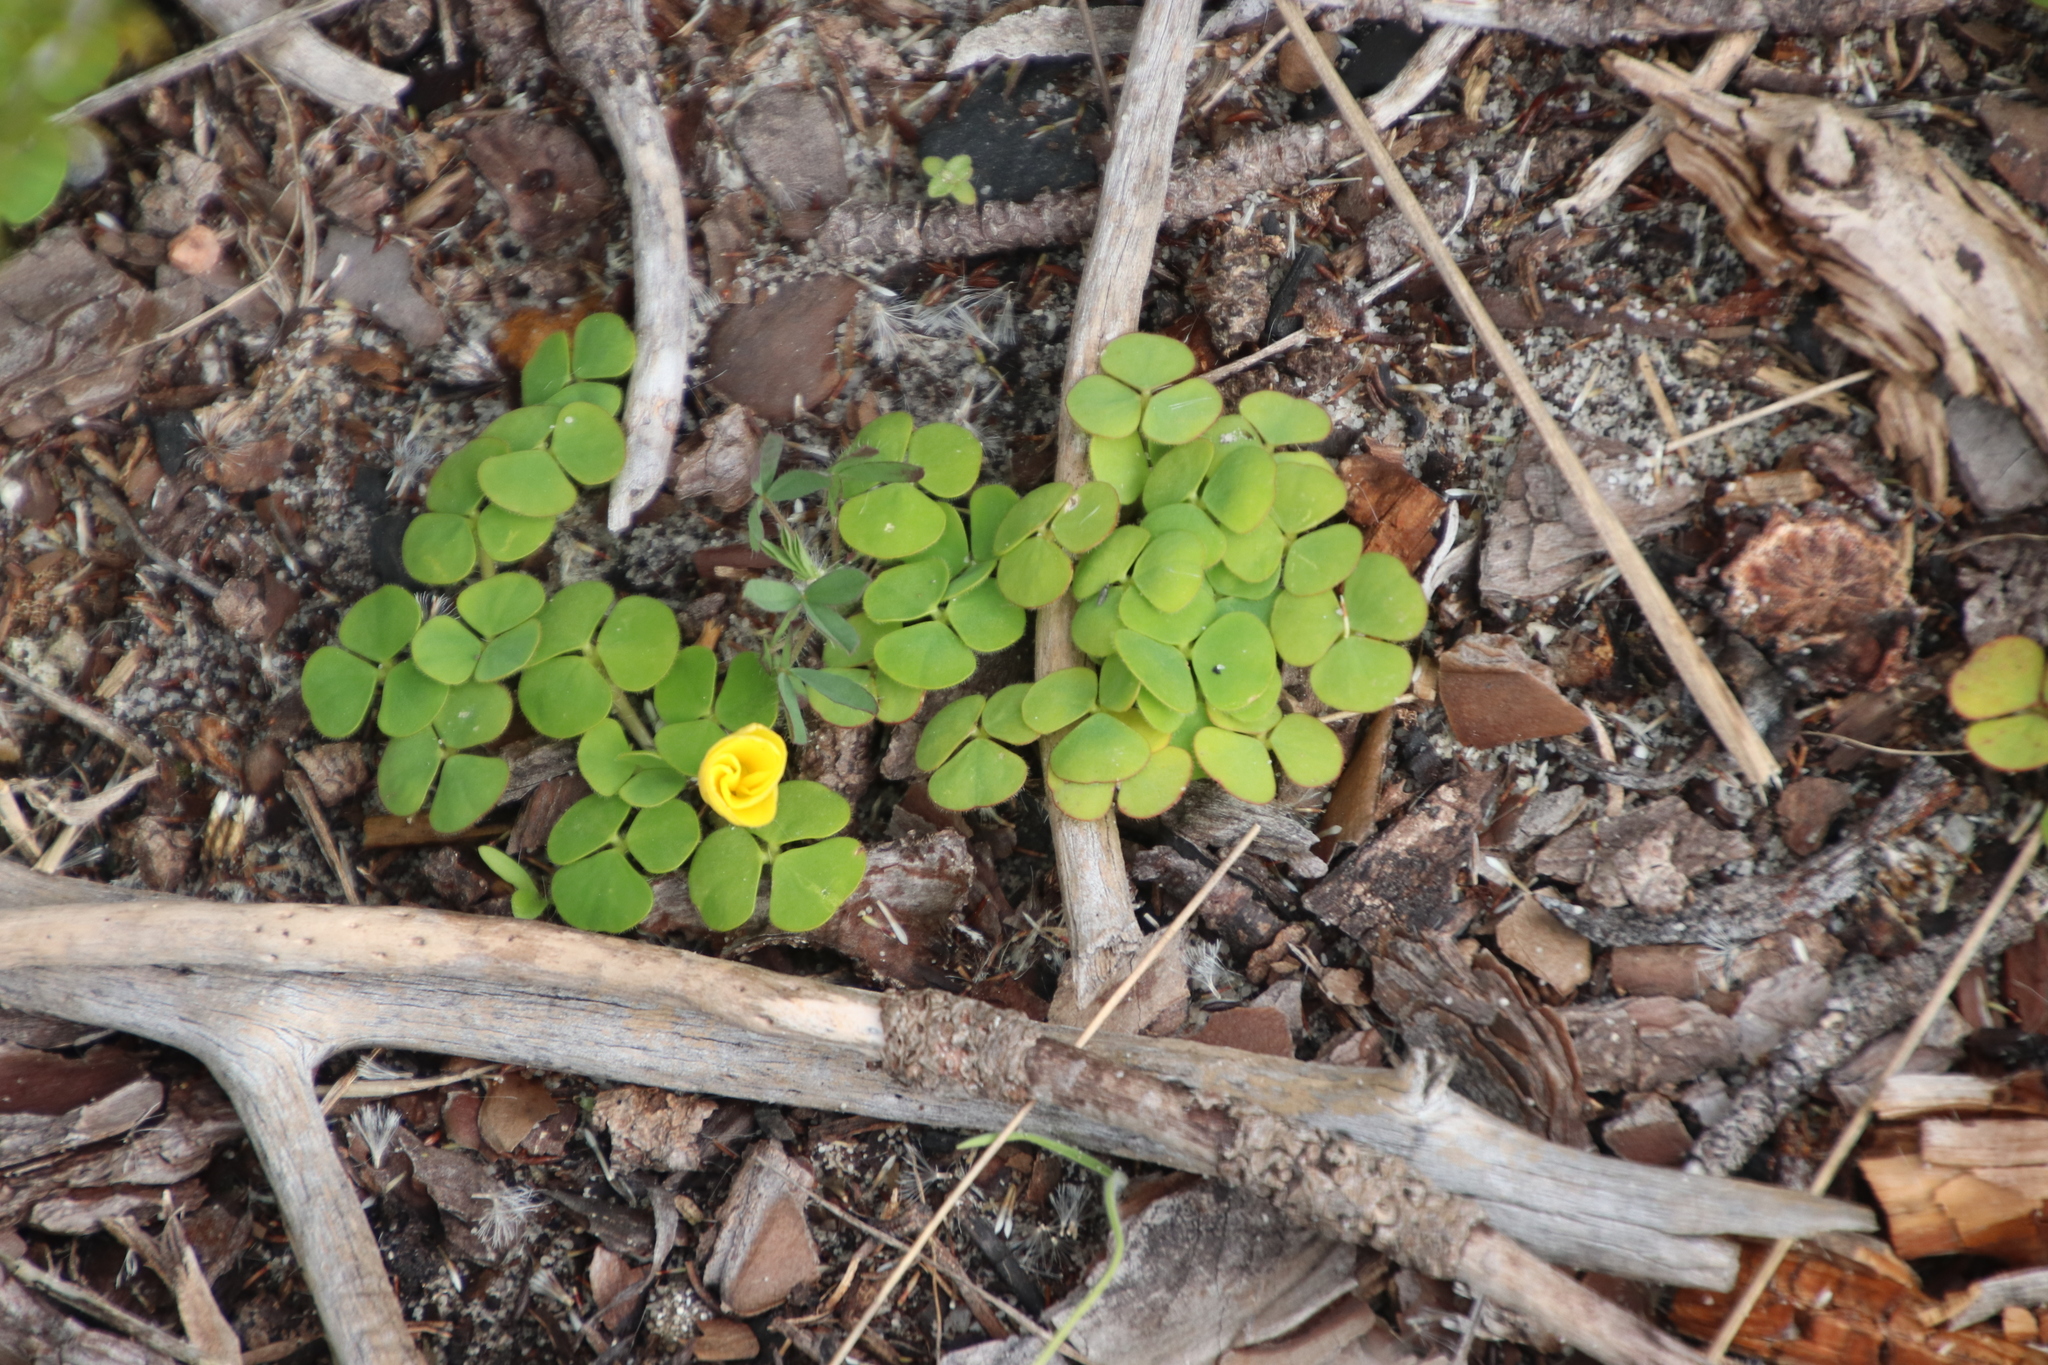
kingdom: Plantae
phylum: Tracheophyta
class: Magnoliopsida
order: Oxalidales
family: Oxalidaceae
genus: Oxalis
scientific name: Oxalis luteola
